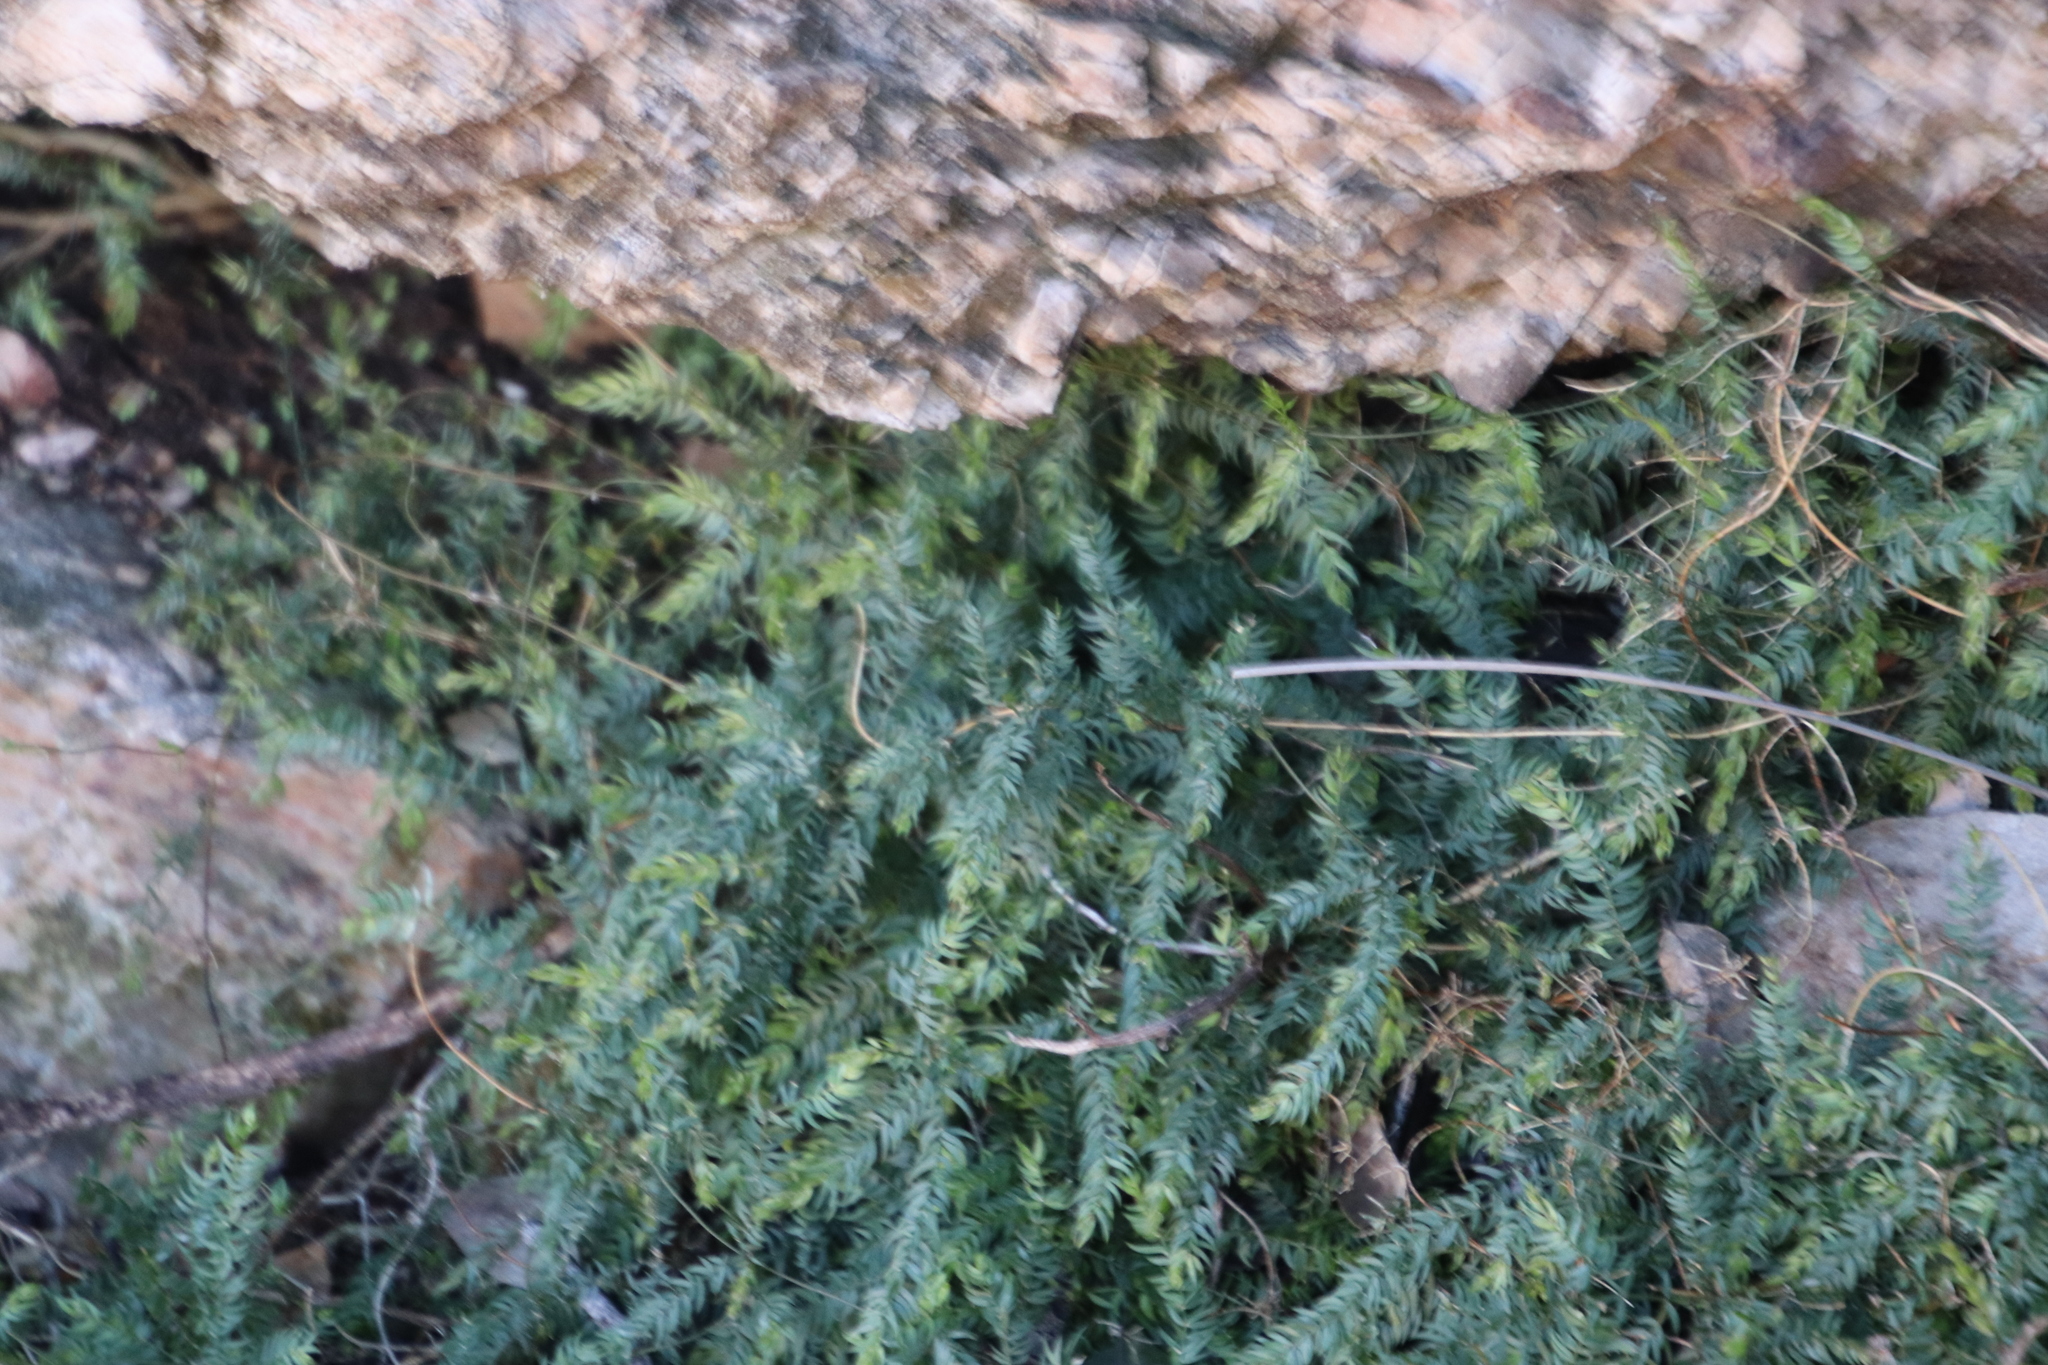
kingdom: Plantae
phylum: Tracheophyta
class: Liliopsida
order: Asparagales
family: Asparagaceae
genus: Asparagus
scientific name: Asparagus scandens
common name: Asparagus-fern
